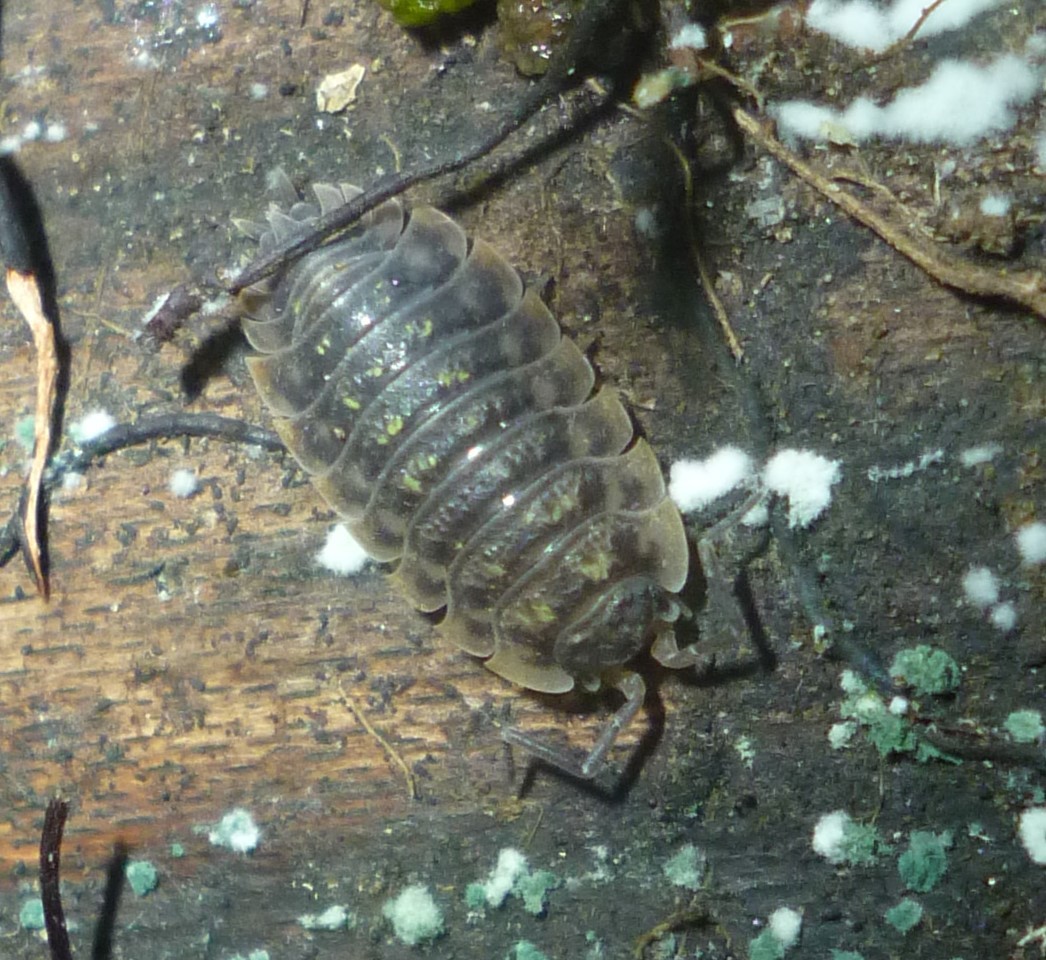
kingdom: Animalia
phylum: Arthropoda
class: Malacostraca
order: Isopoda
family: Oniscidae
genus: Oniscus
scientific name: Oniscus asellus
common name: Common shiny woodlouse
